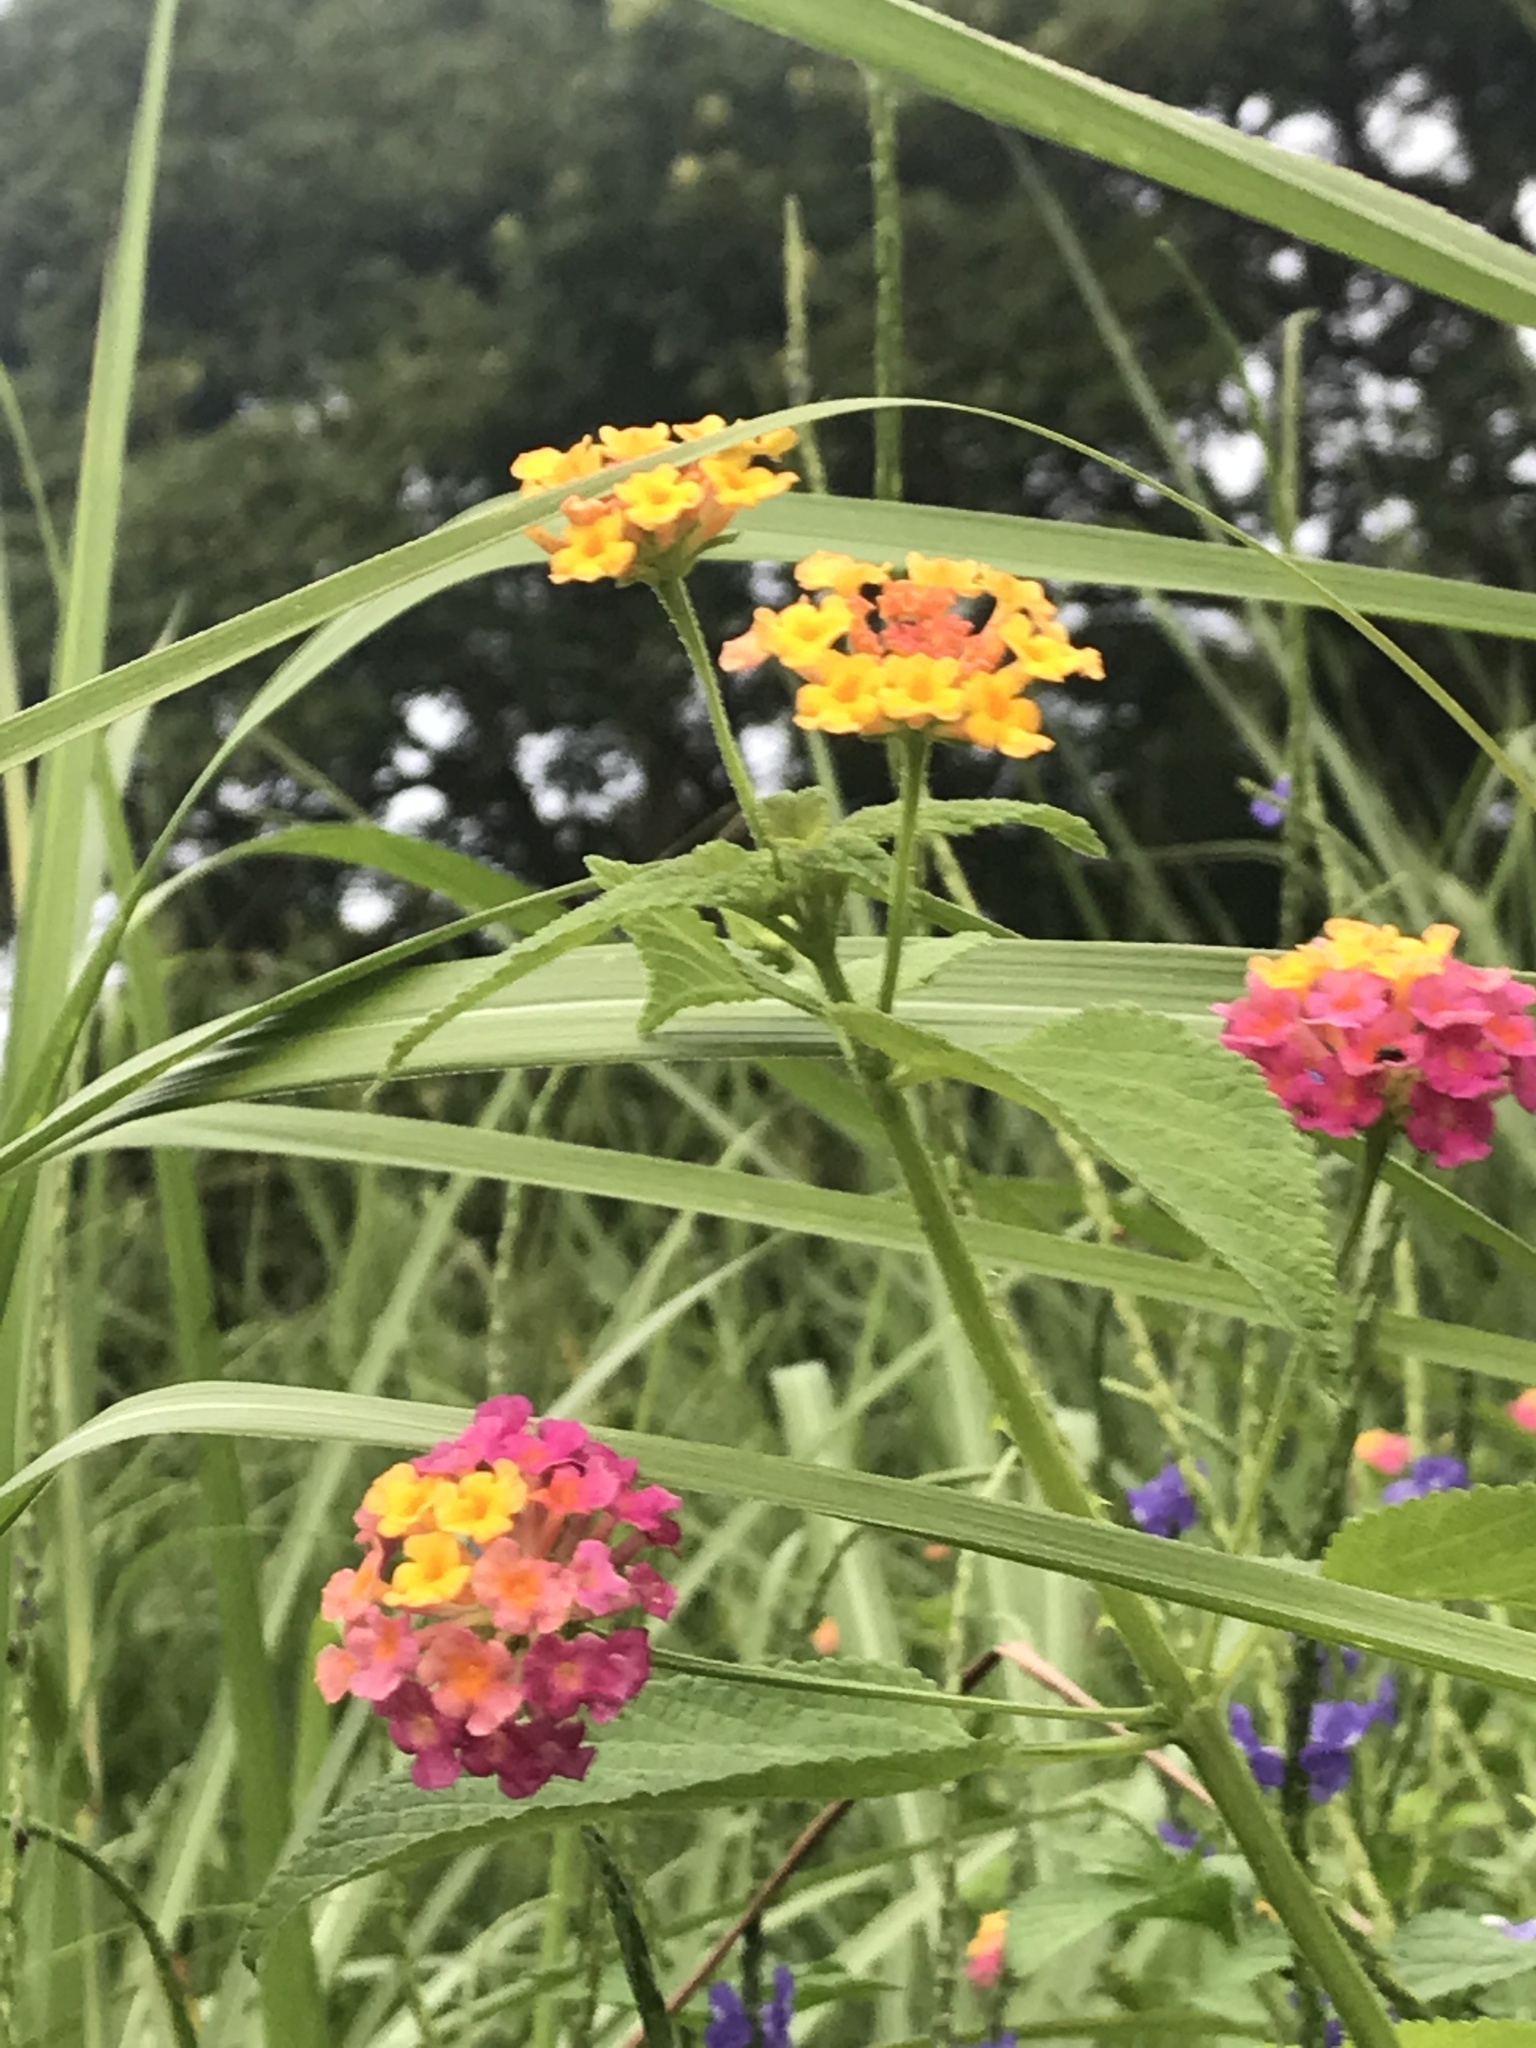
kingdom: Plantae
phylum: Tracheophyta
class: Magnoliopsida
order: Lamiales
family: Verbenaceae
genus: Lantana
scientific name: Lantana camara
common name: Lantana
